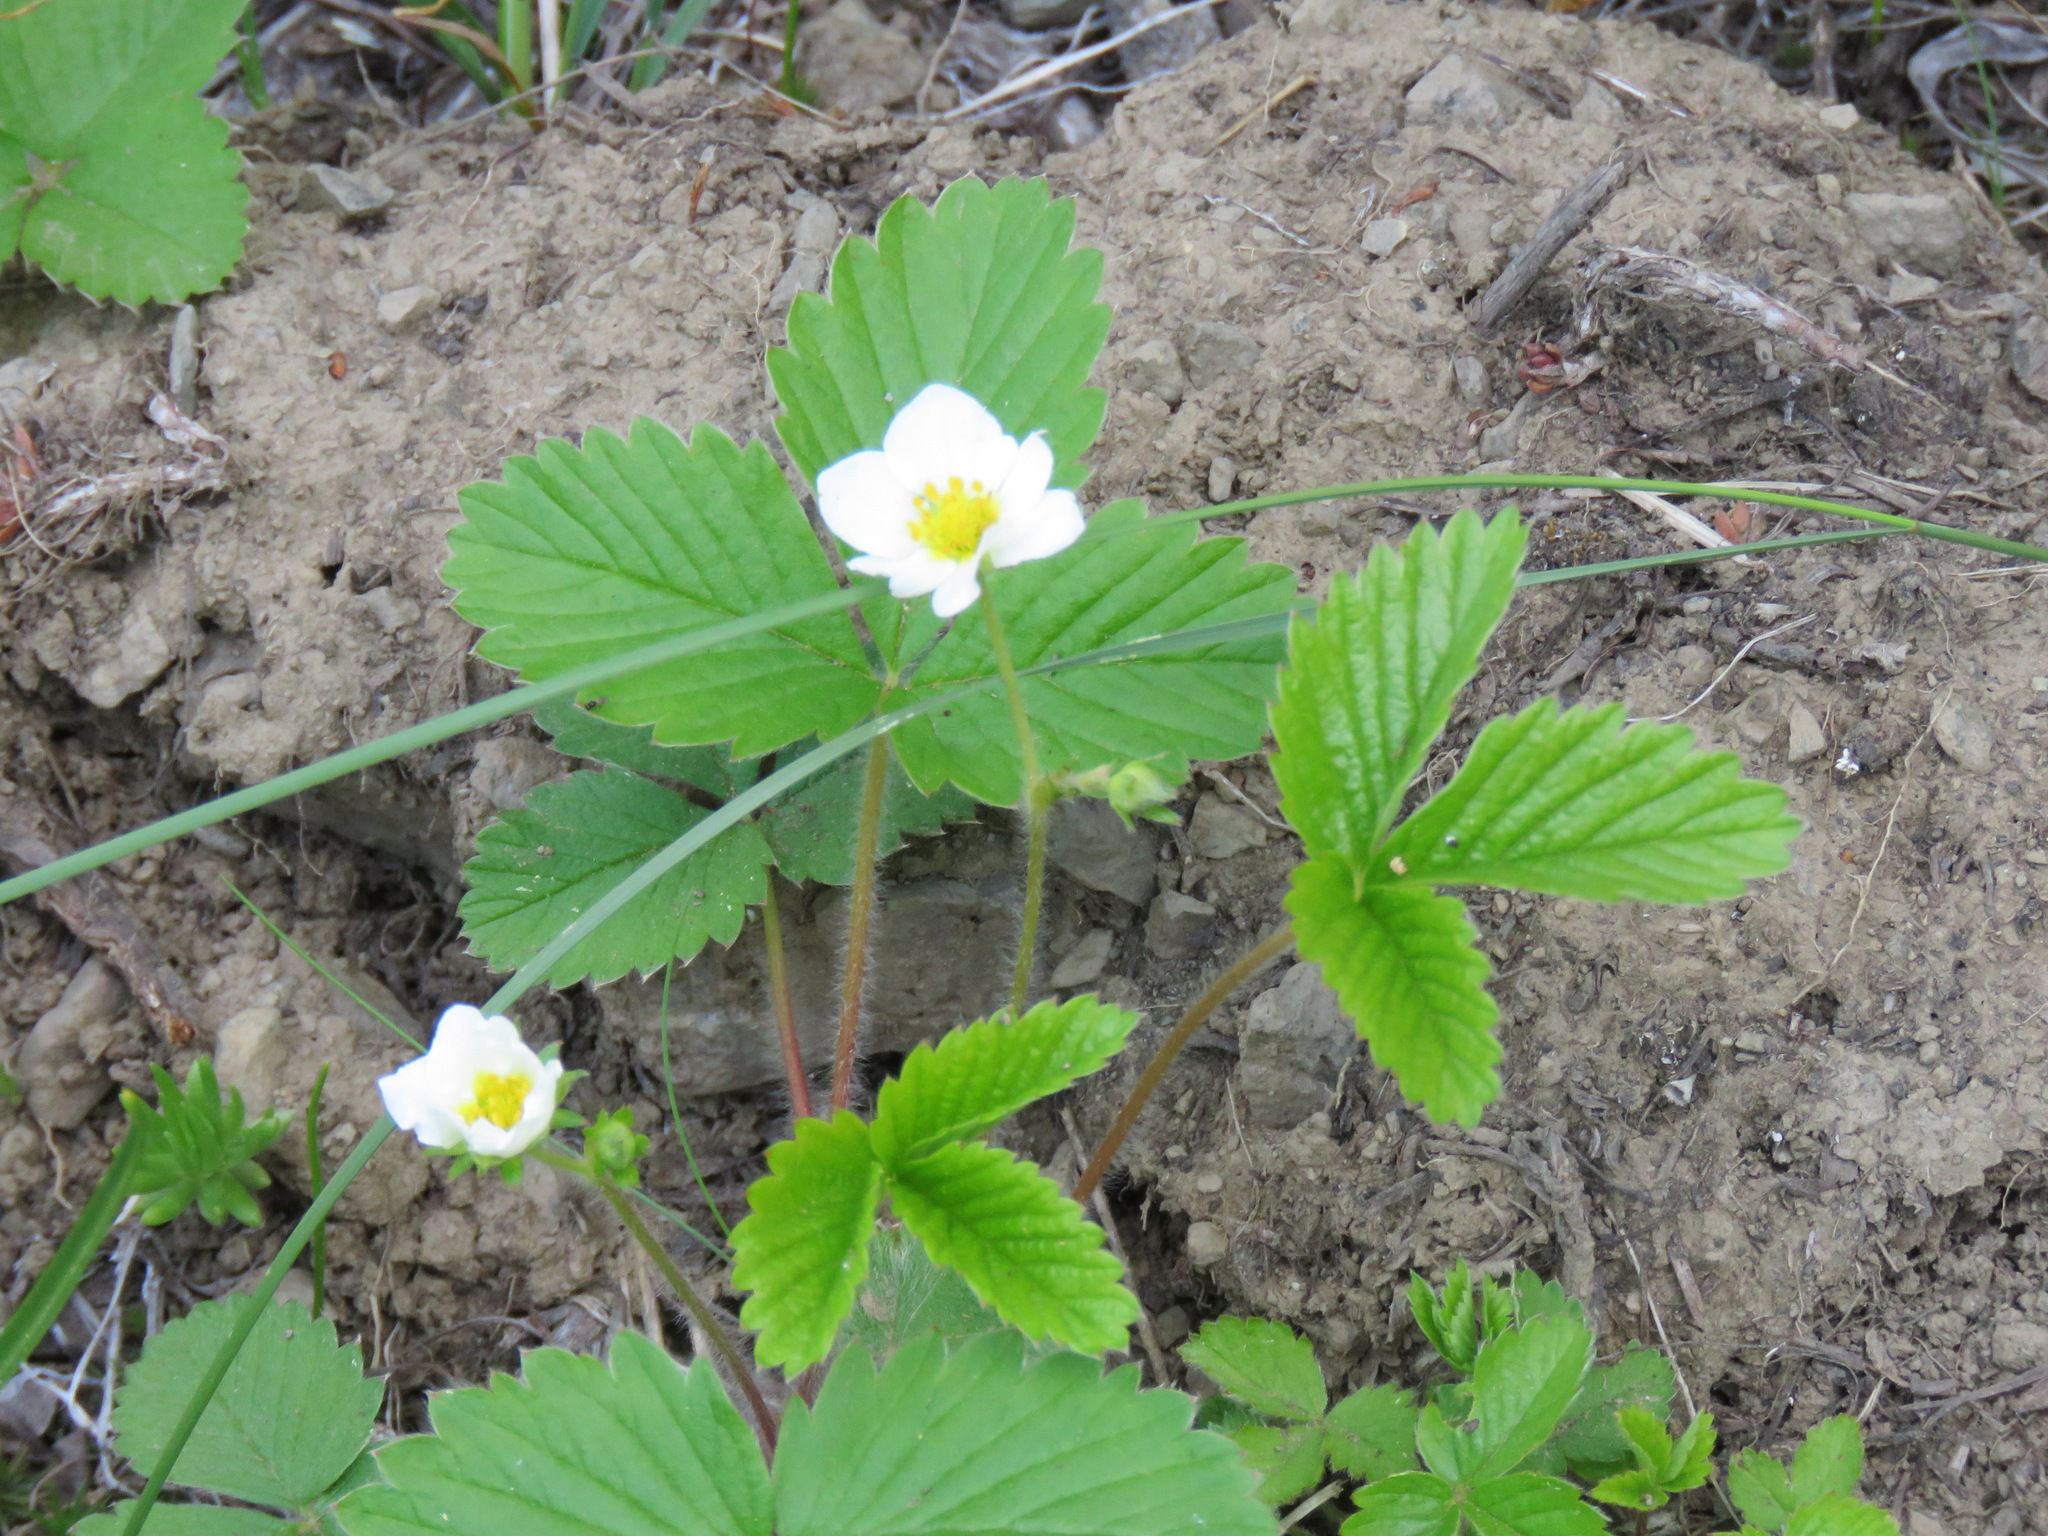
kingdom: Plantae
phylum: Tracheophyta
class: Magnoliopsida
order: Rosales
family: Rosaceae
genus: Fragaria
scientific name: Fragaria vesca
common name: Wild strawberry
